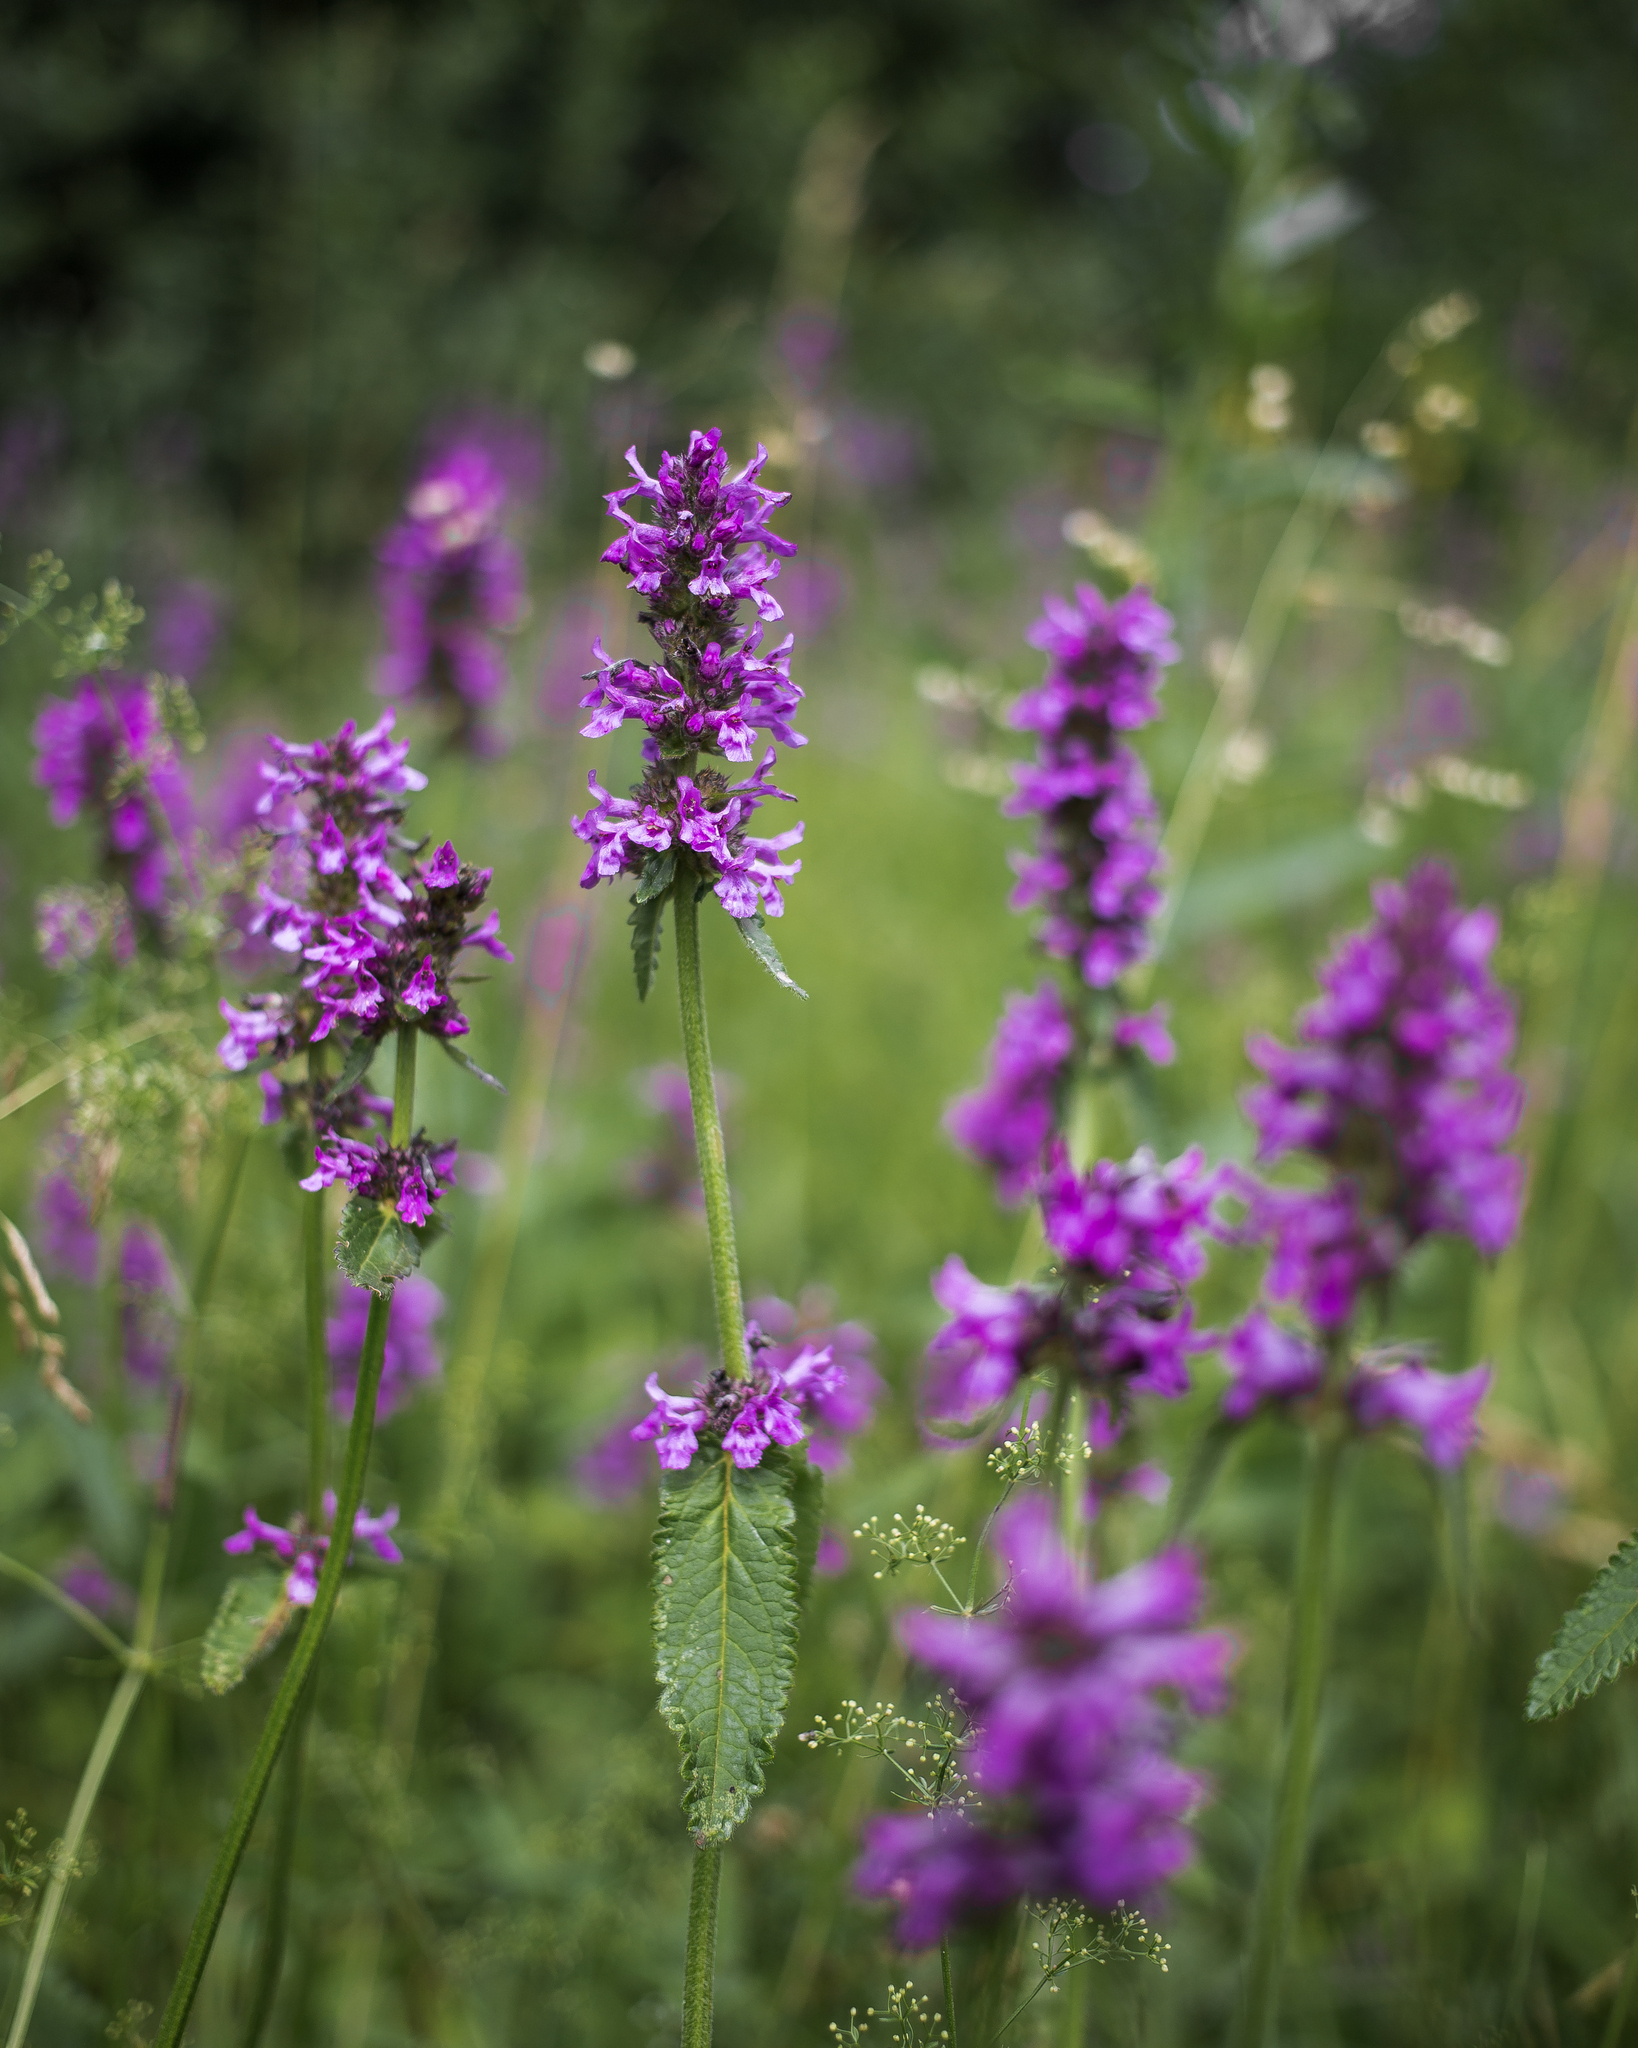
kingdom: Plantae
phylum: Tracheophyta
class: Magnoliopsida
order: Lamiales
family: Lamiaceae
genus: Betonica
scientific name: Betonica officinalis
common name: Bishop's-wort
